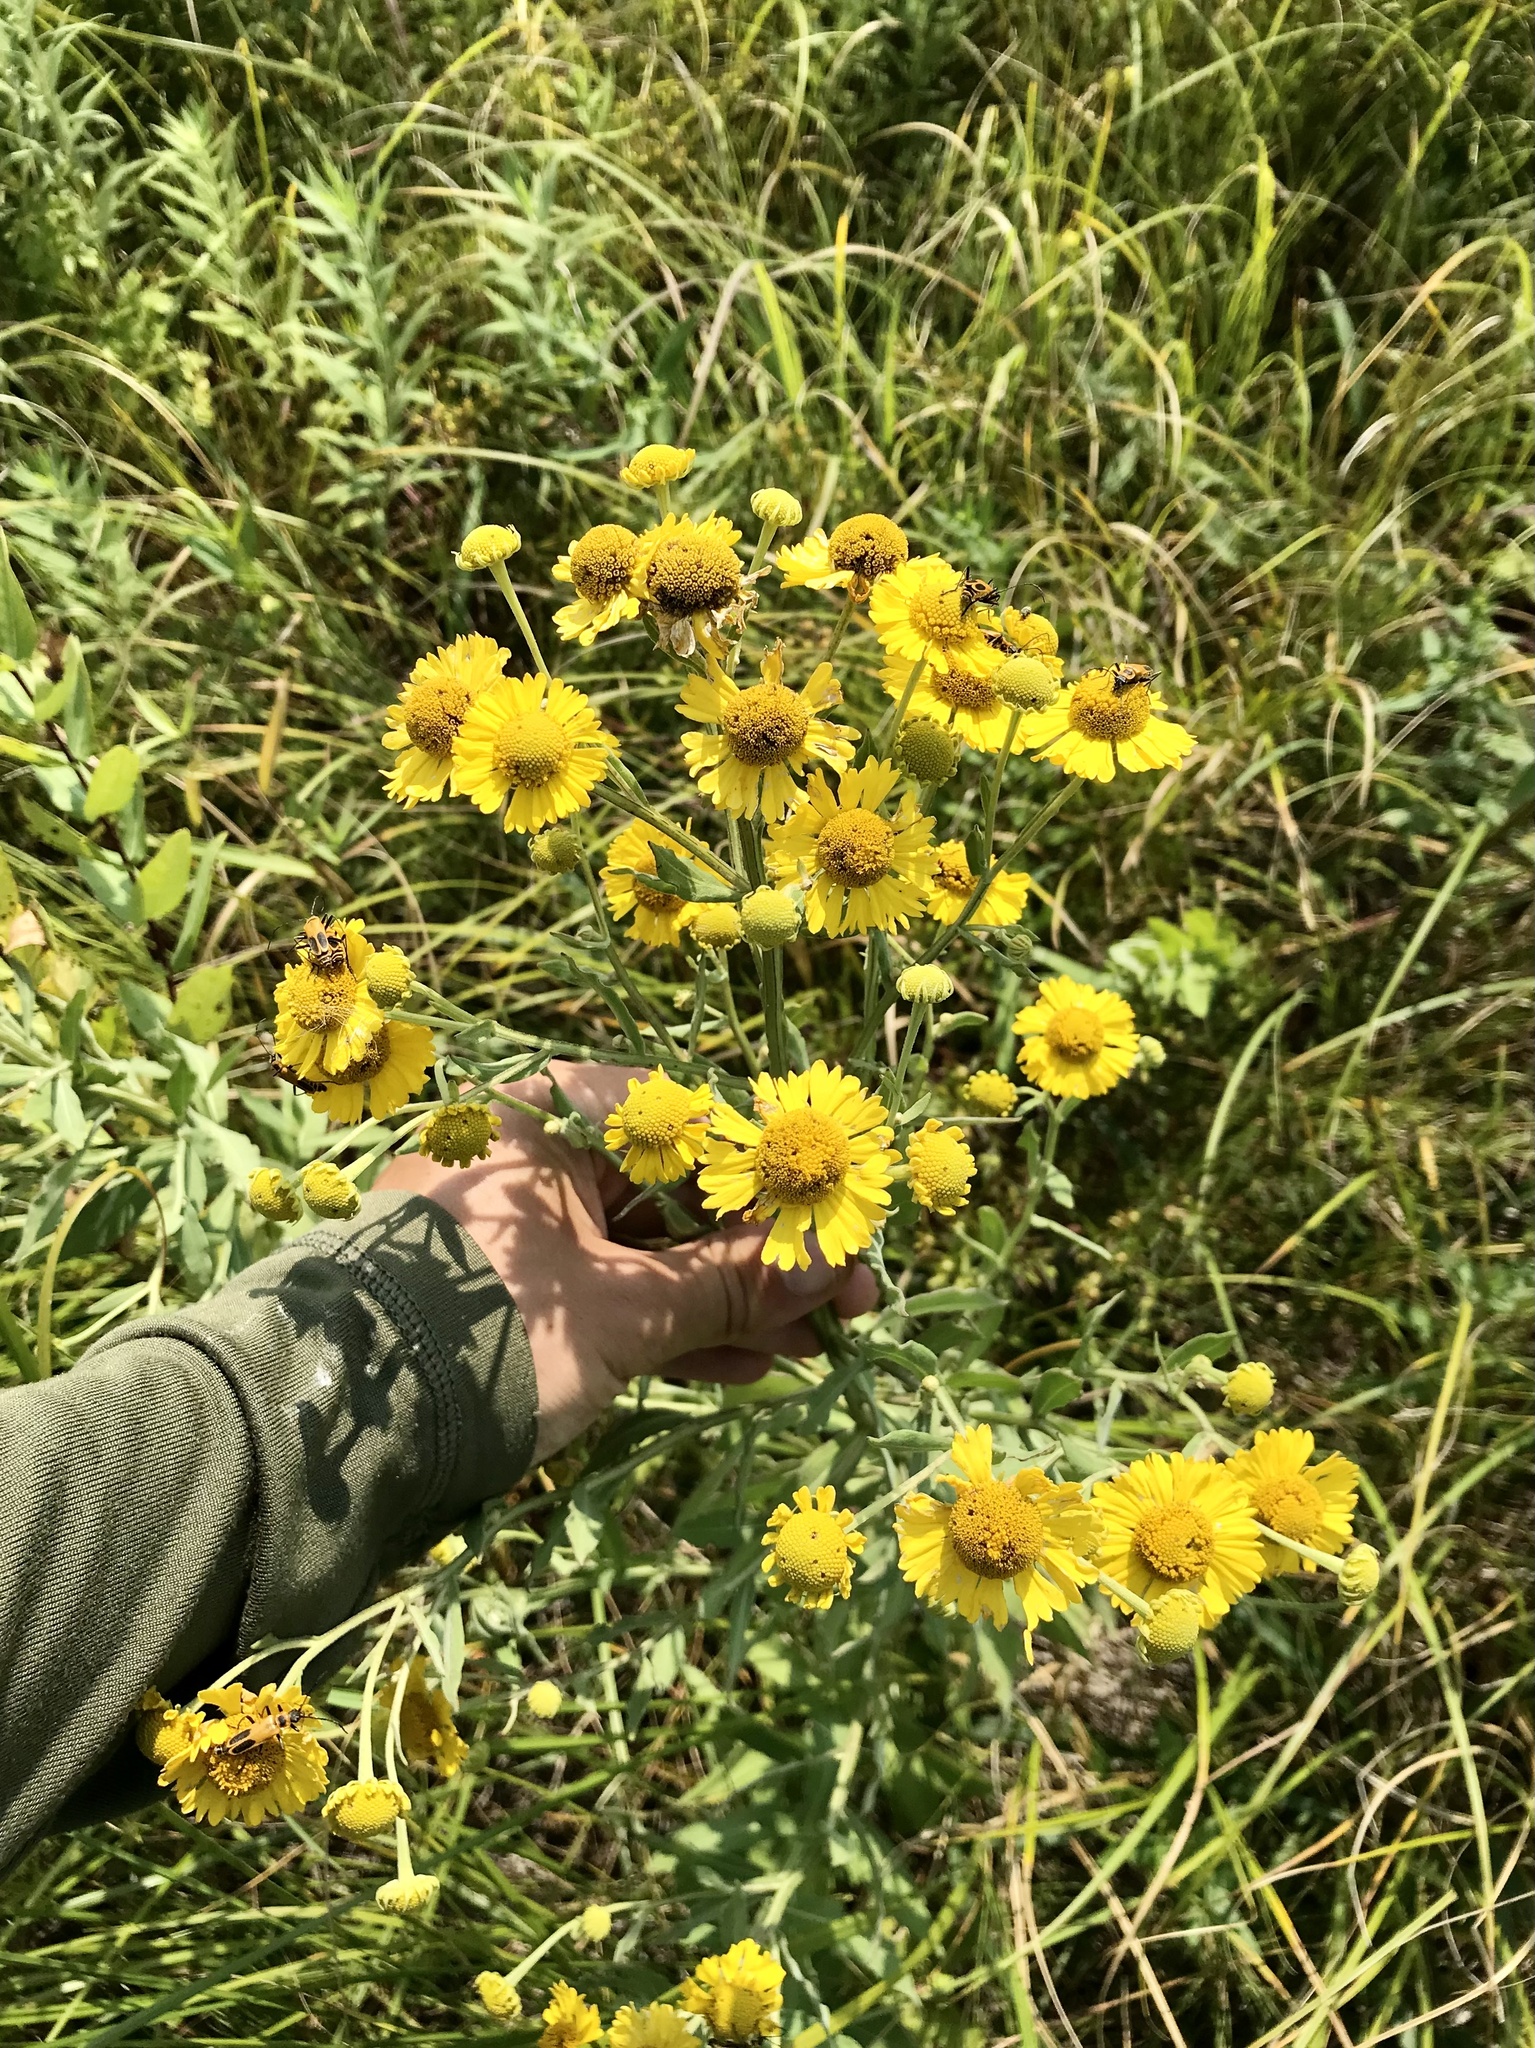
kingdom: Plantae
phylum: Tracheophyta
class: Magnoliopsida
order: Asterales
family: Asteraceae
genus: Helenium
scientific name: Helenium autumnale
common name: Sneezeweed
